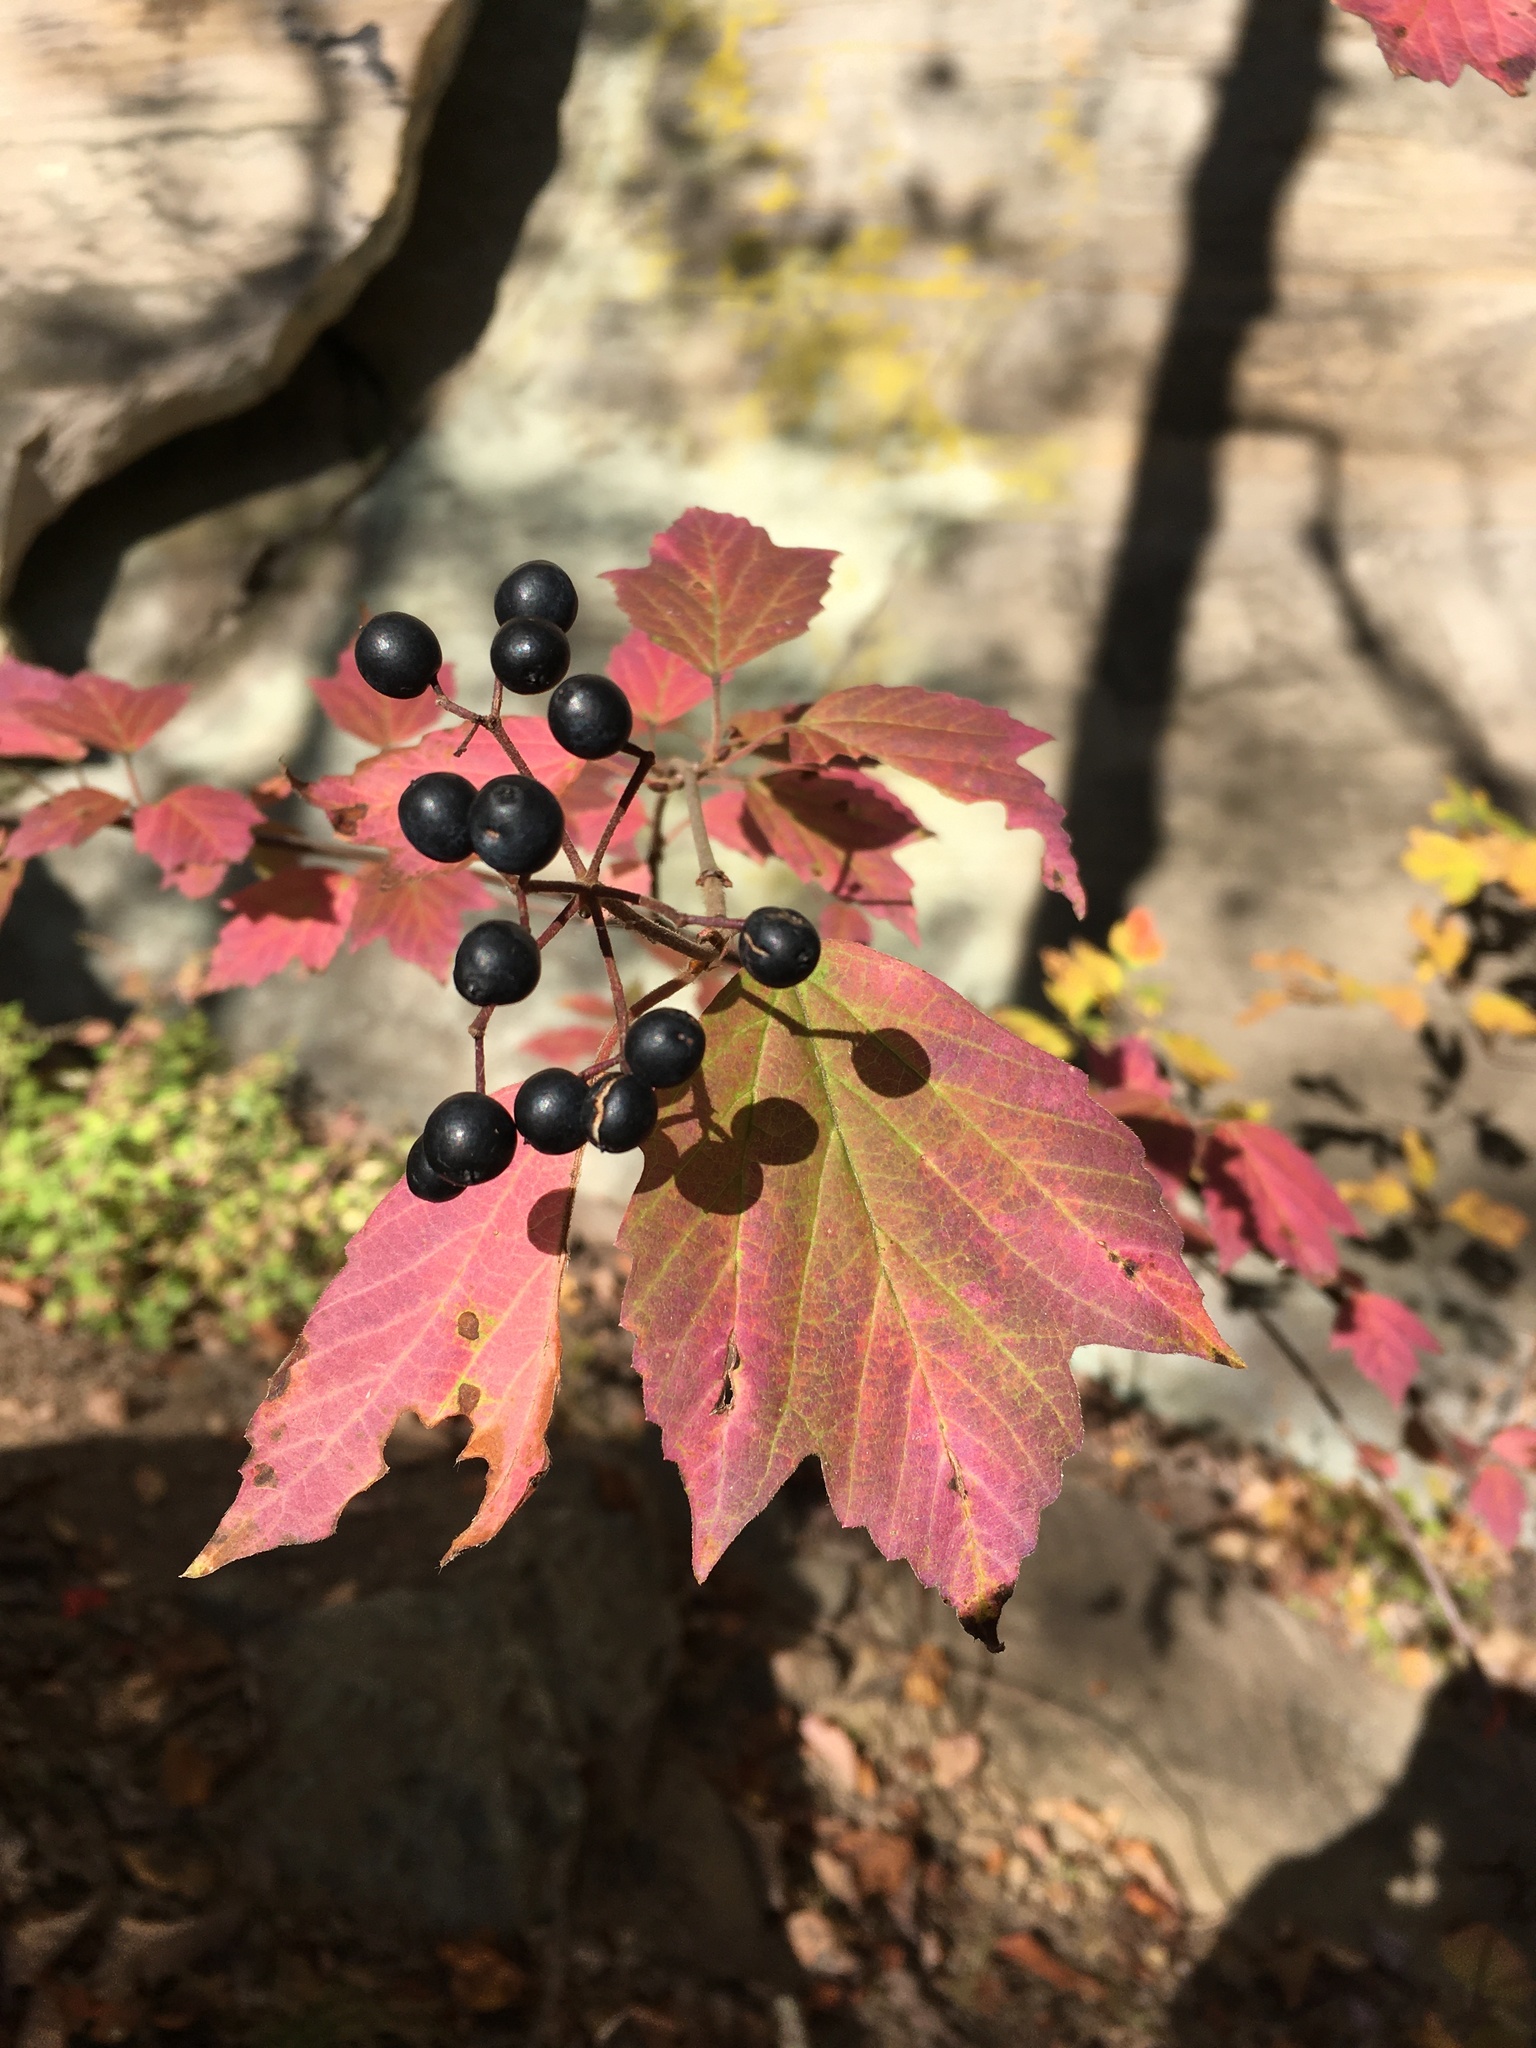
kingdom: Plantae
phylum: Tracheophyta
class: Magnoliopsida
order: Dipsacales
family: Viburnaceae
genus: Viburnum
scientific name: Viburnum acerifolium
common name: Dockmackie
